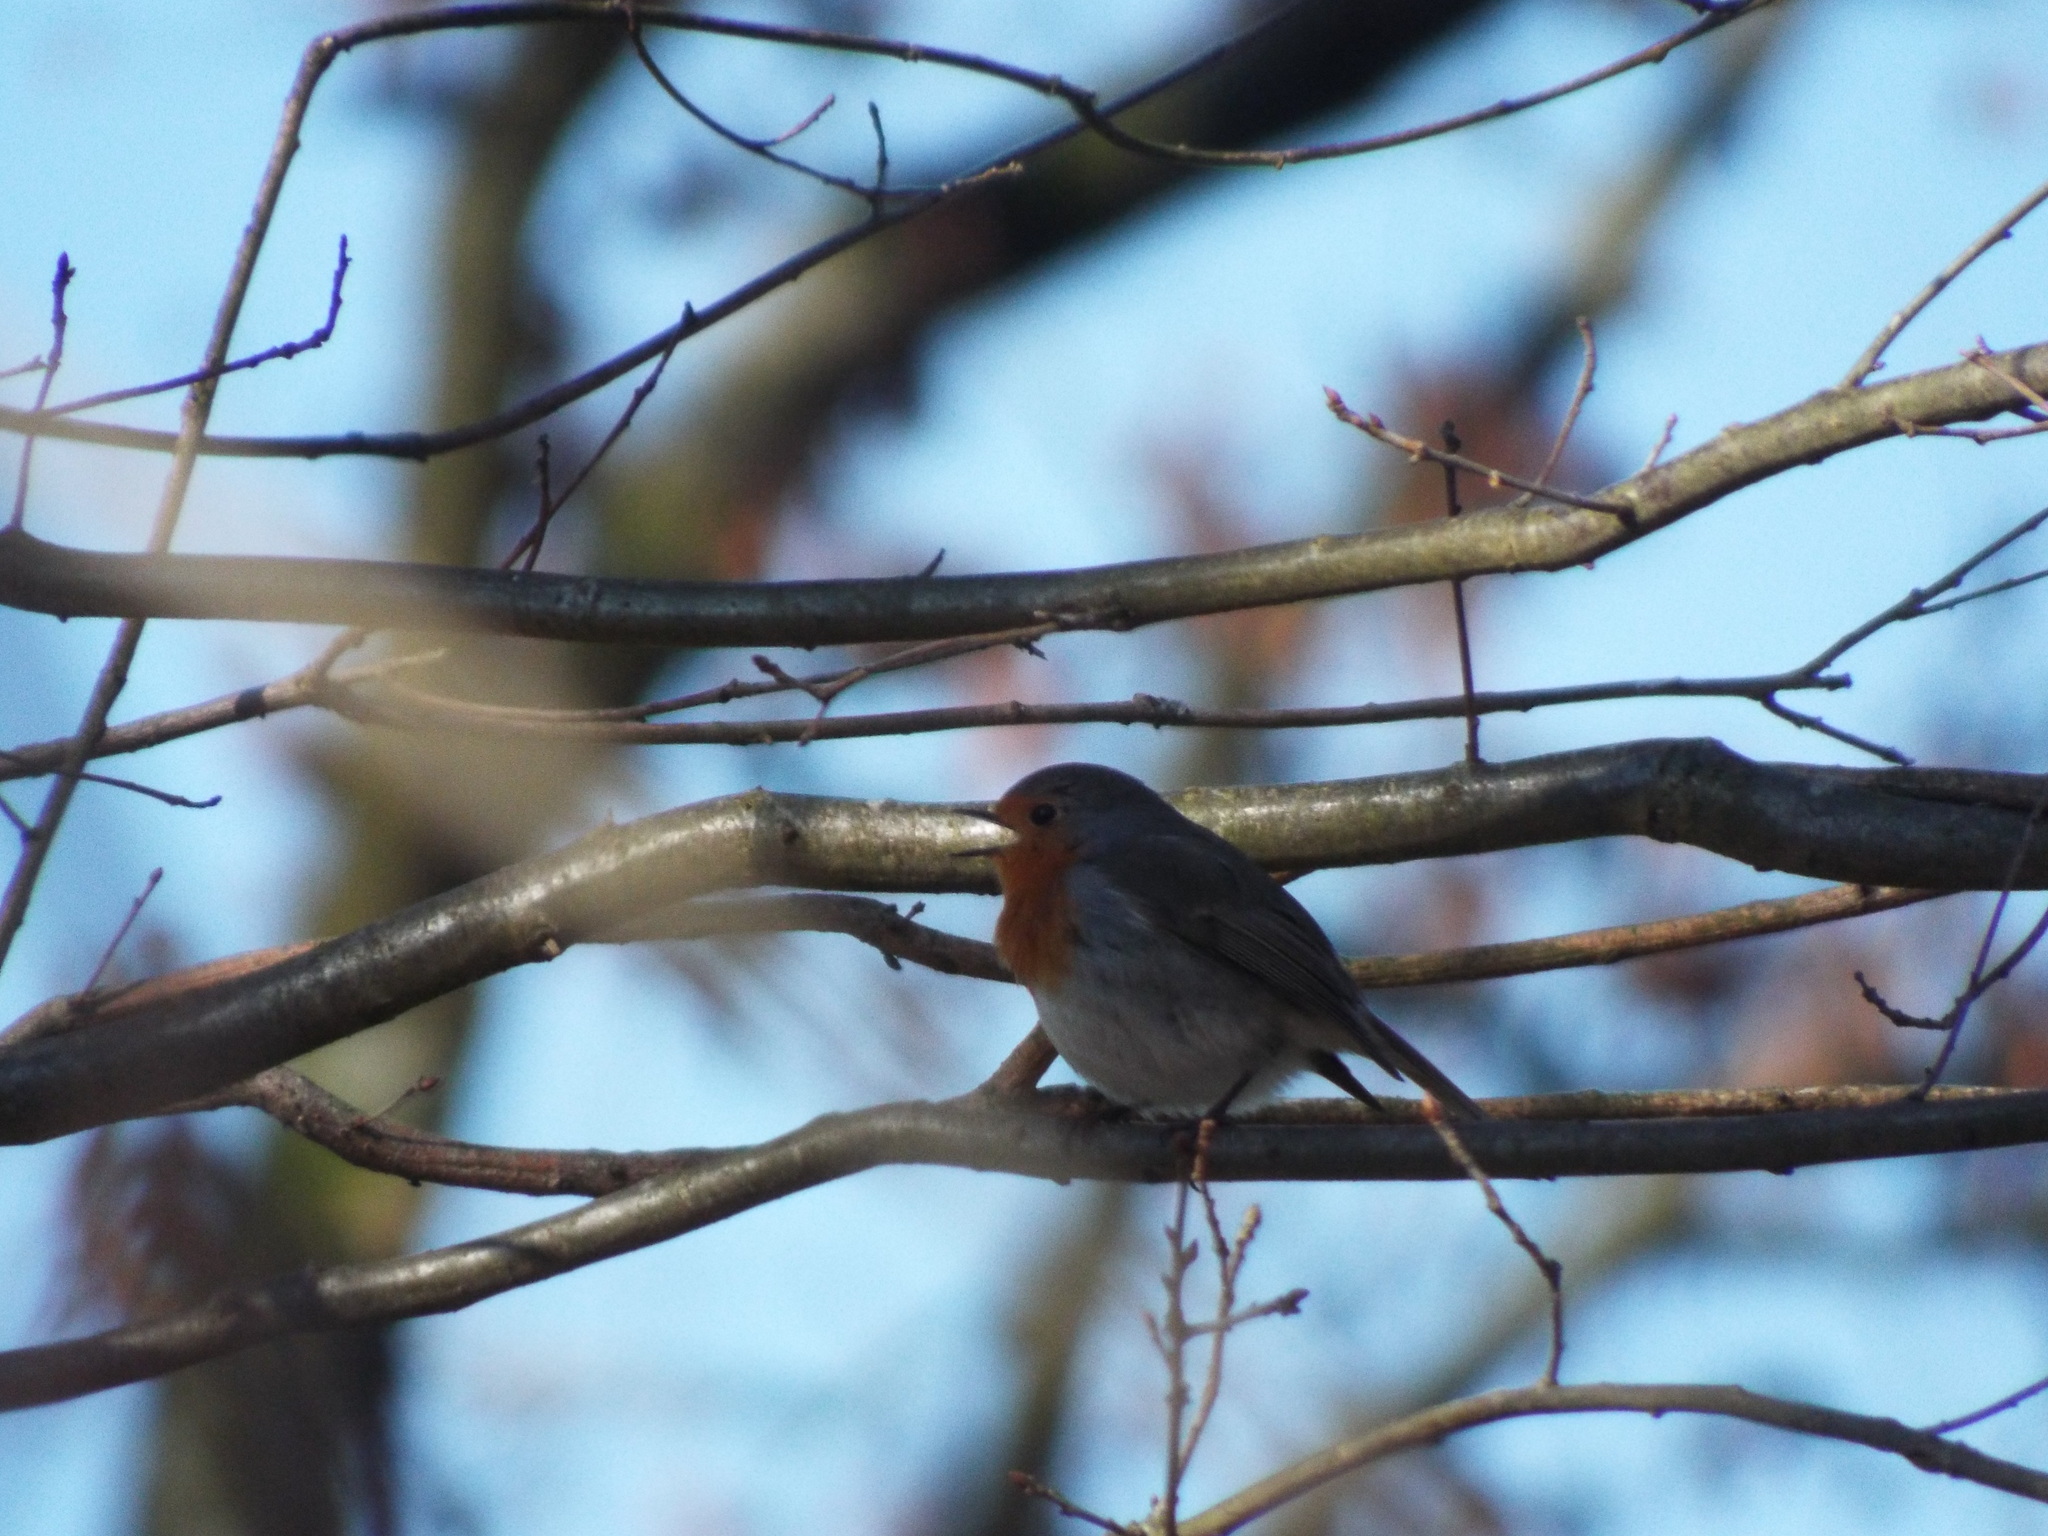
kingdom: Animalia
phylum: Chordata
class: Aves
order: Passeriformes
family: Muscicapidae
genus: Erithacus
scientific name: Erithacus rubecula
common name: European robin
